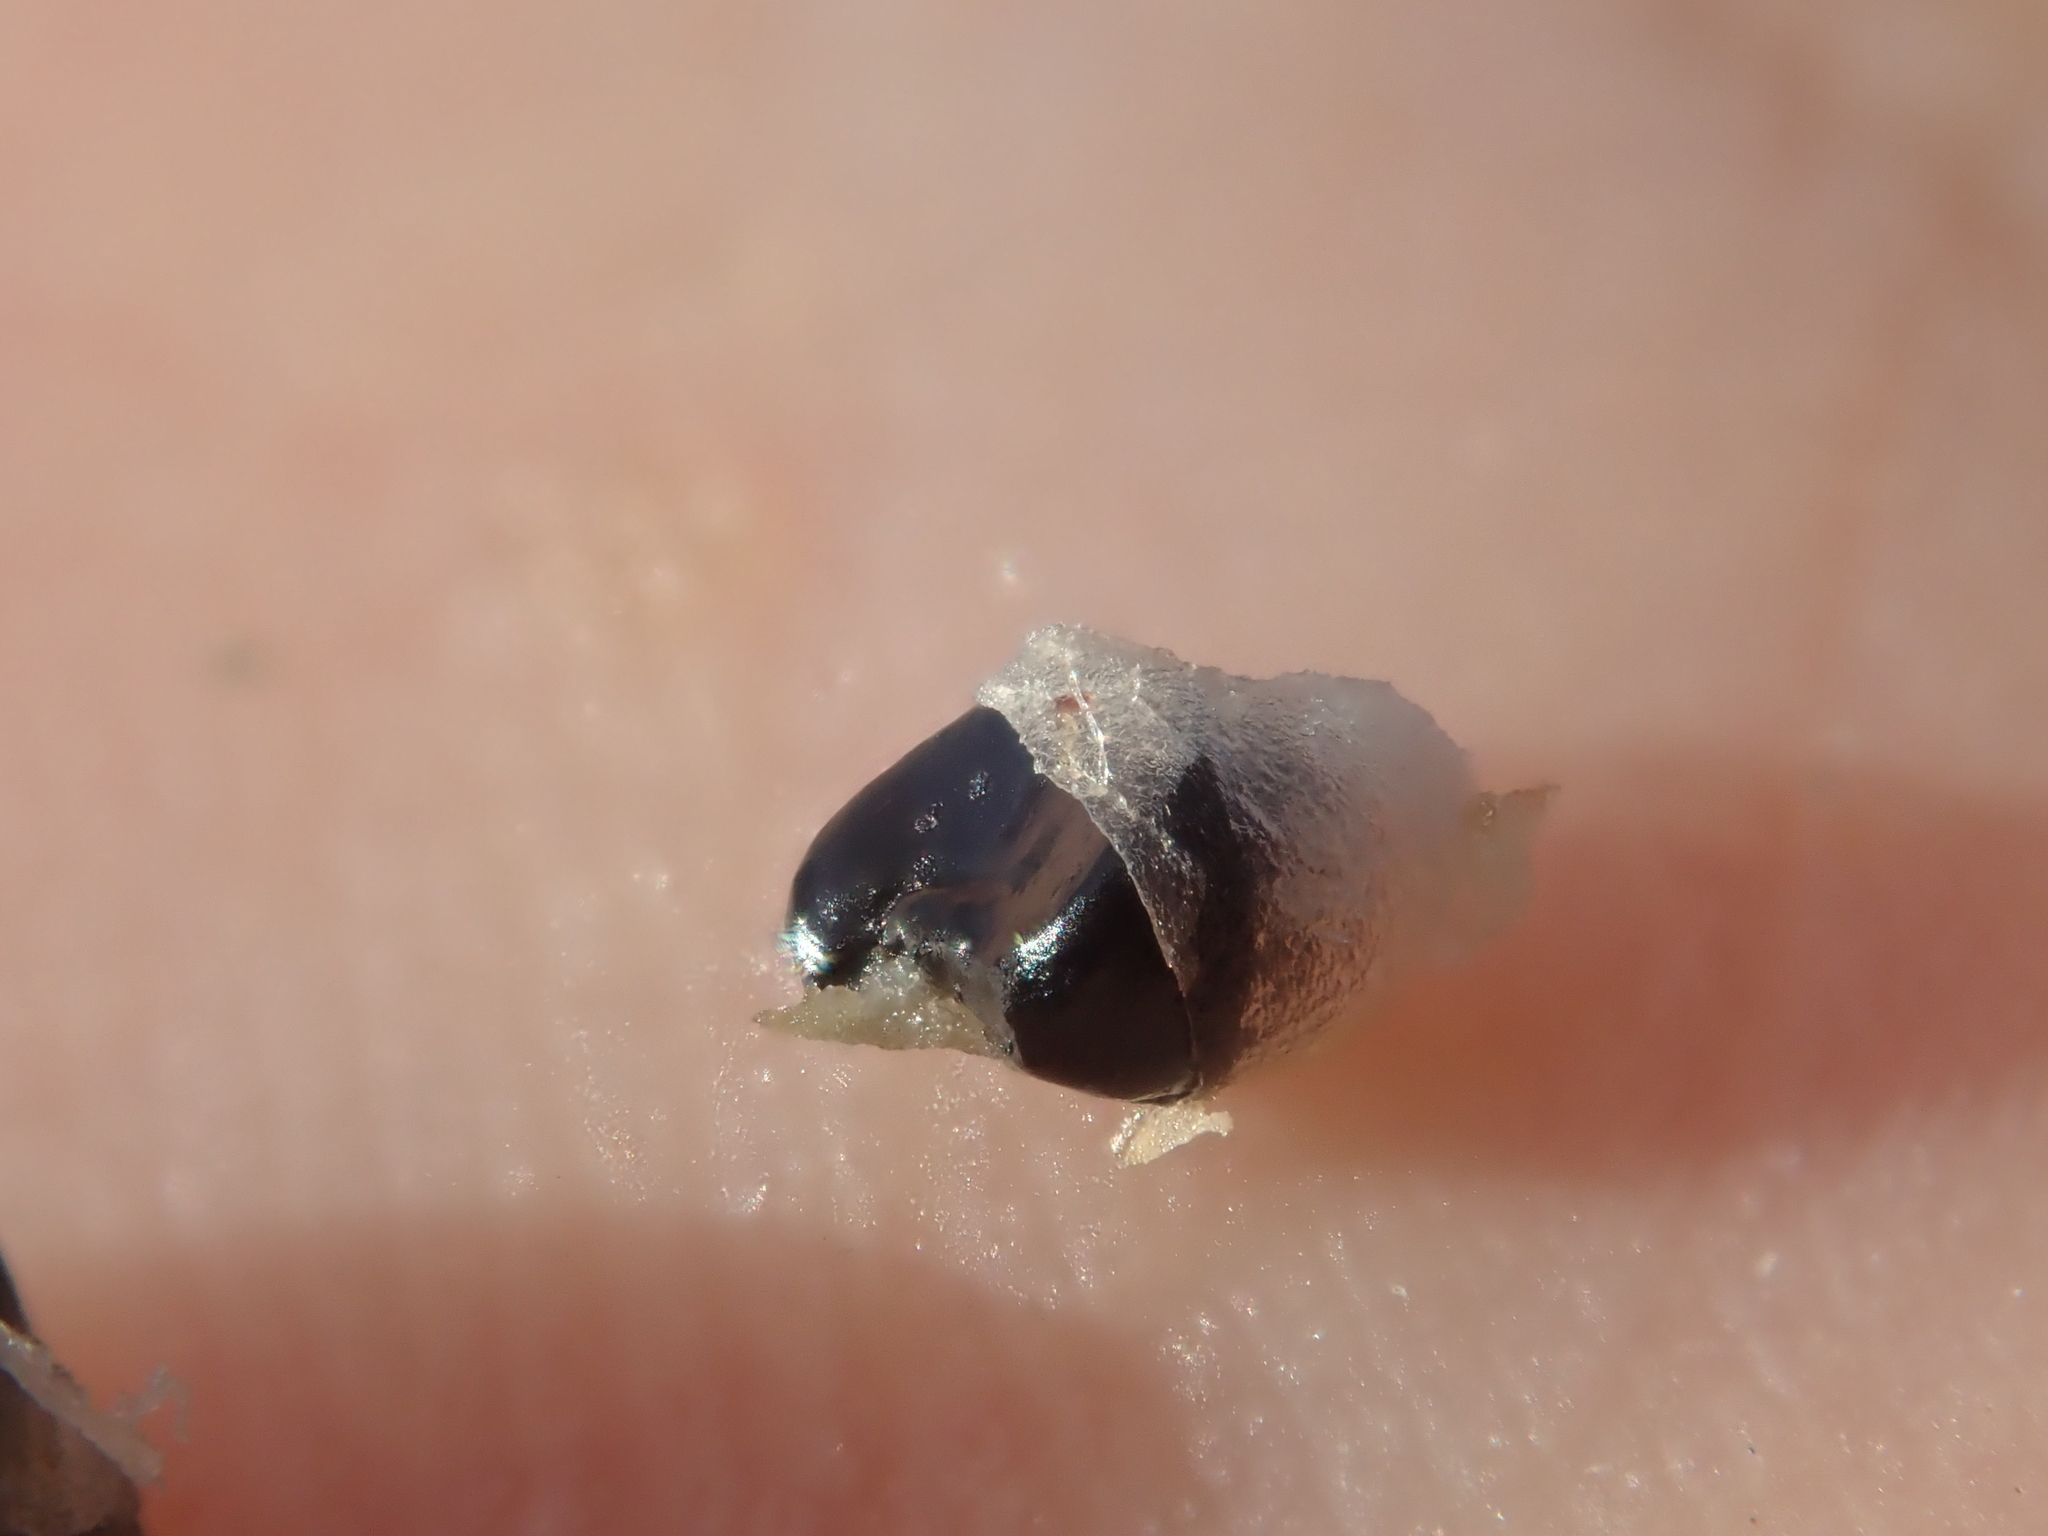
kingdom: Plantae
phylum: Tracheophyta
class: Liliopsida
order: Asparagales
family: Asparagaceae
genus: Cordyline
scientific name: Cordyline australis
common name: Cabbage-palm
